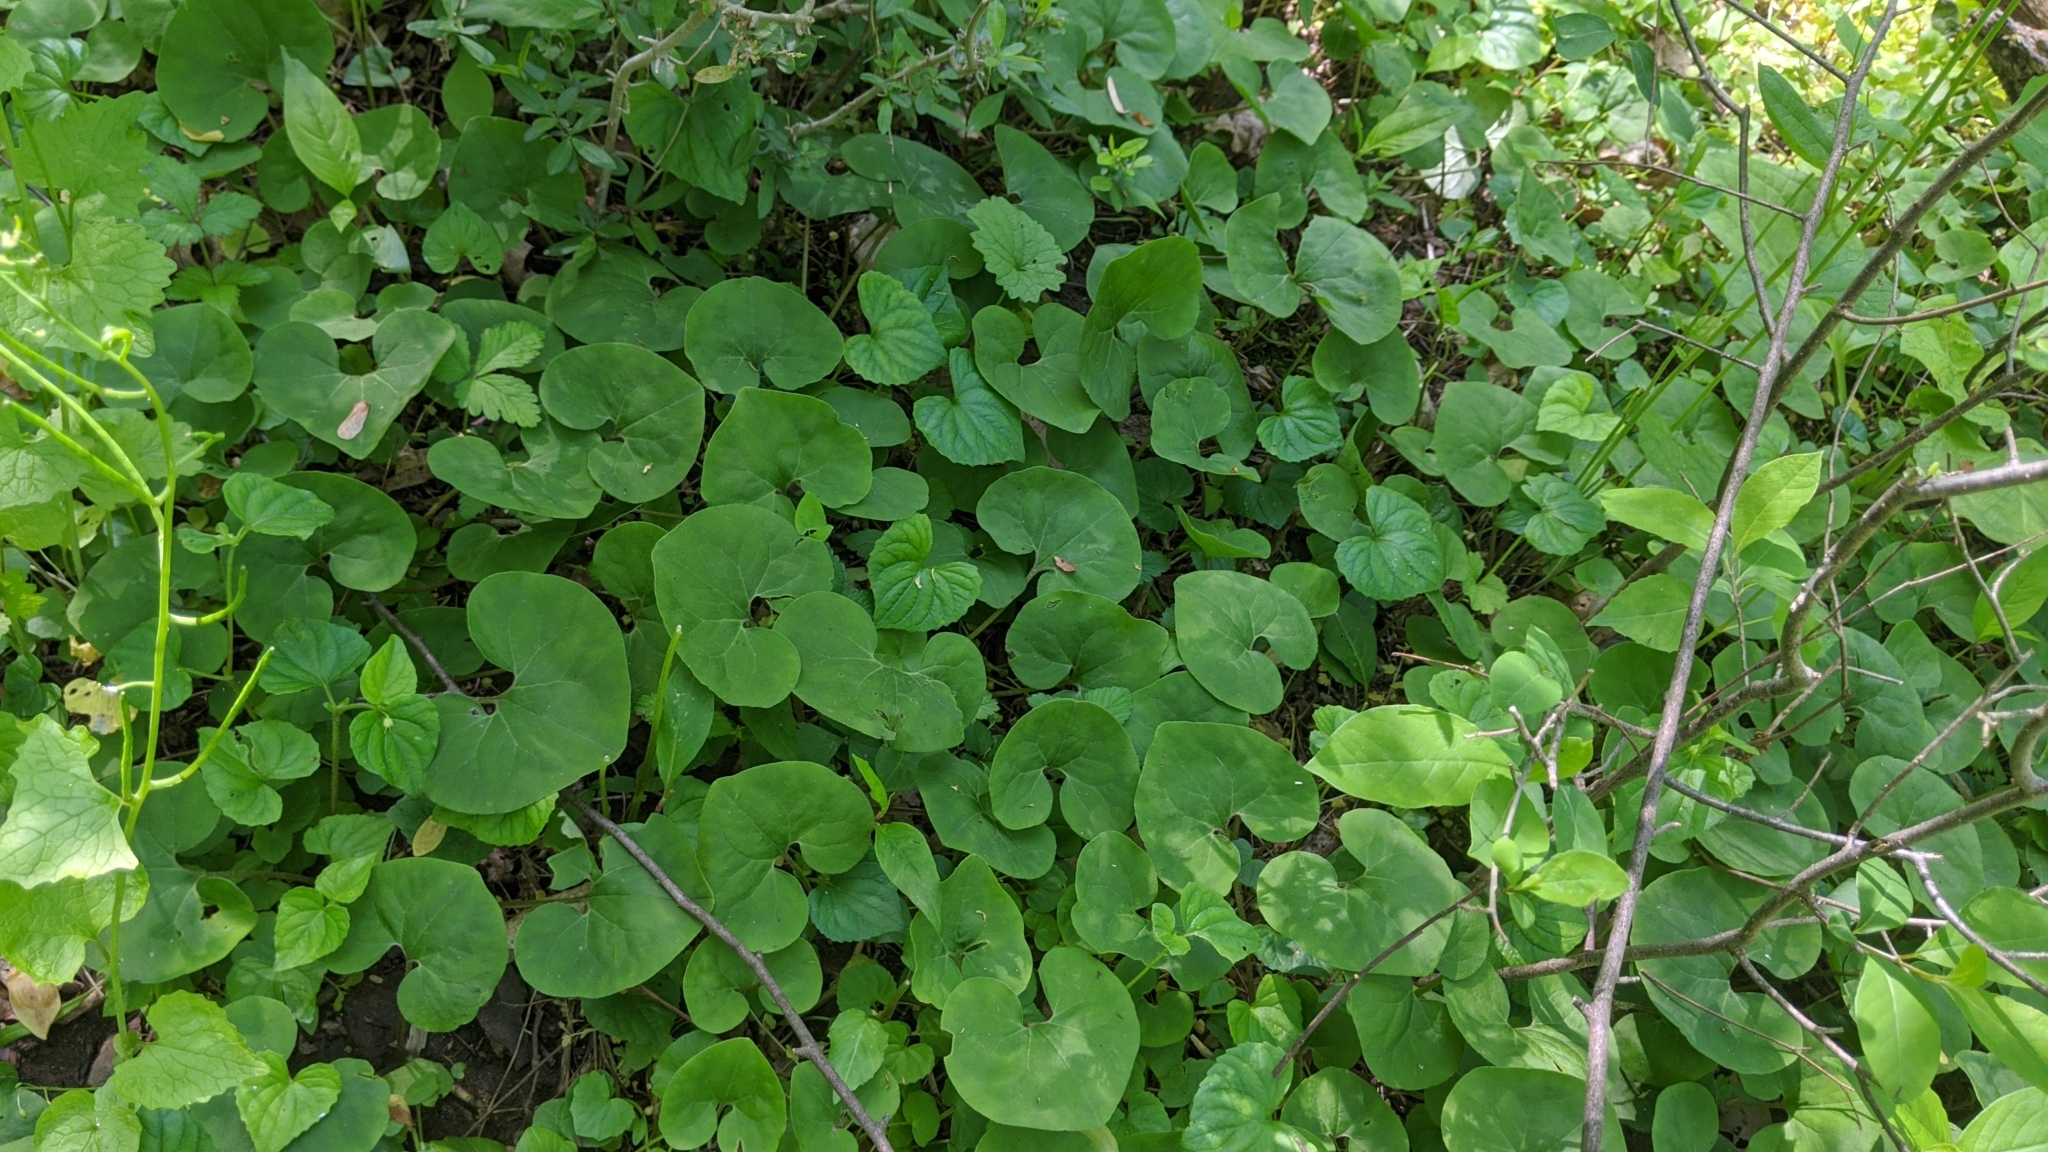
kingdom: Plantae
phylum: Tracheophyta
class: Magnoliopsida
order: Piperales
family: Aristolochiaceae
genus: Asarum
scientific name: Asarum canadense
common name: Wild ginger
